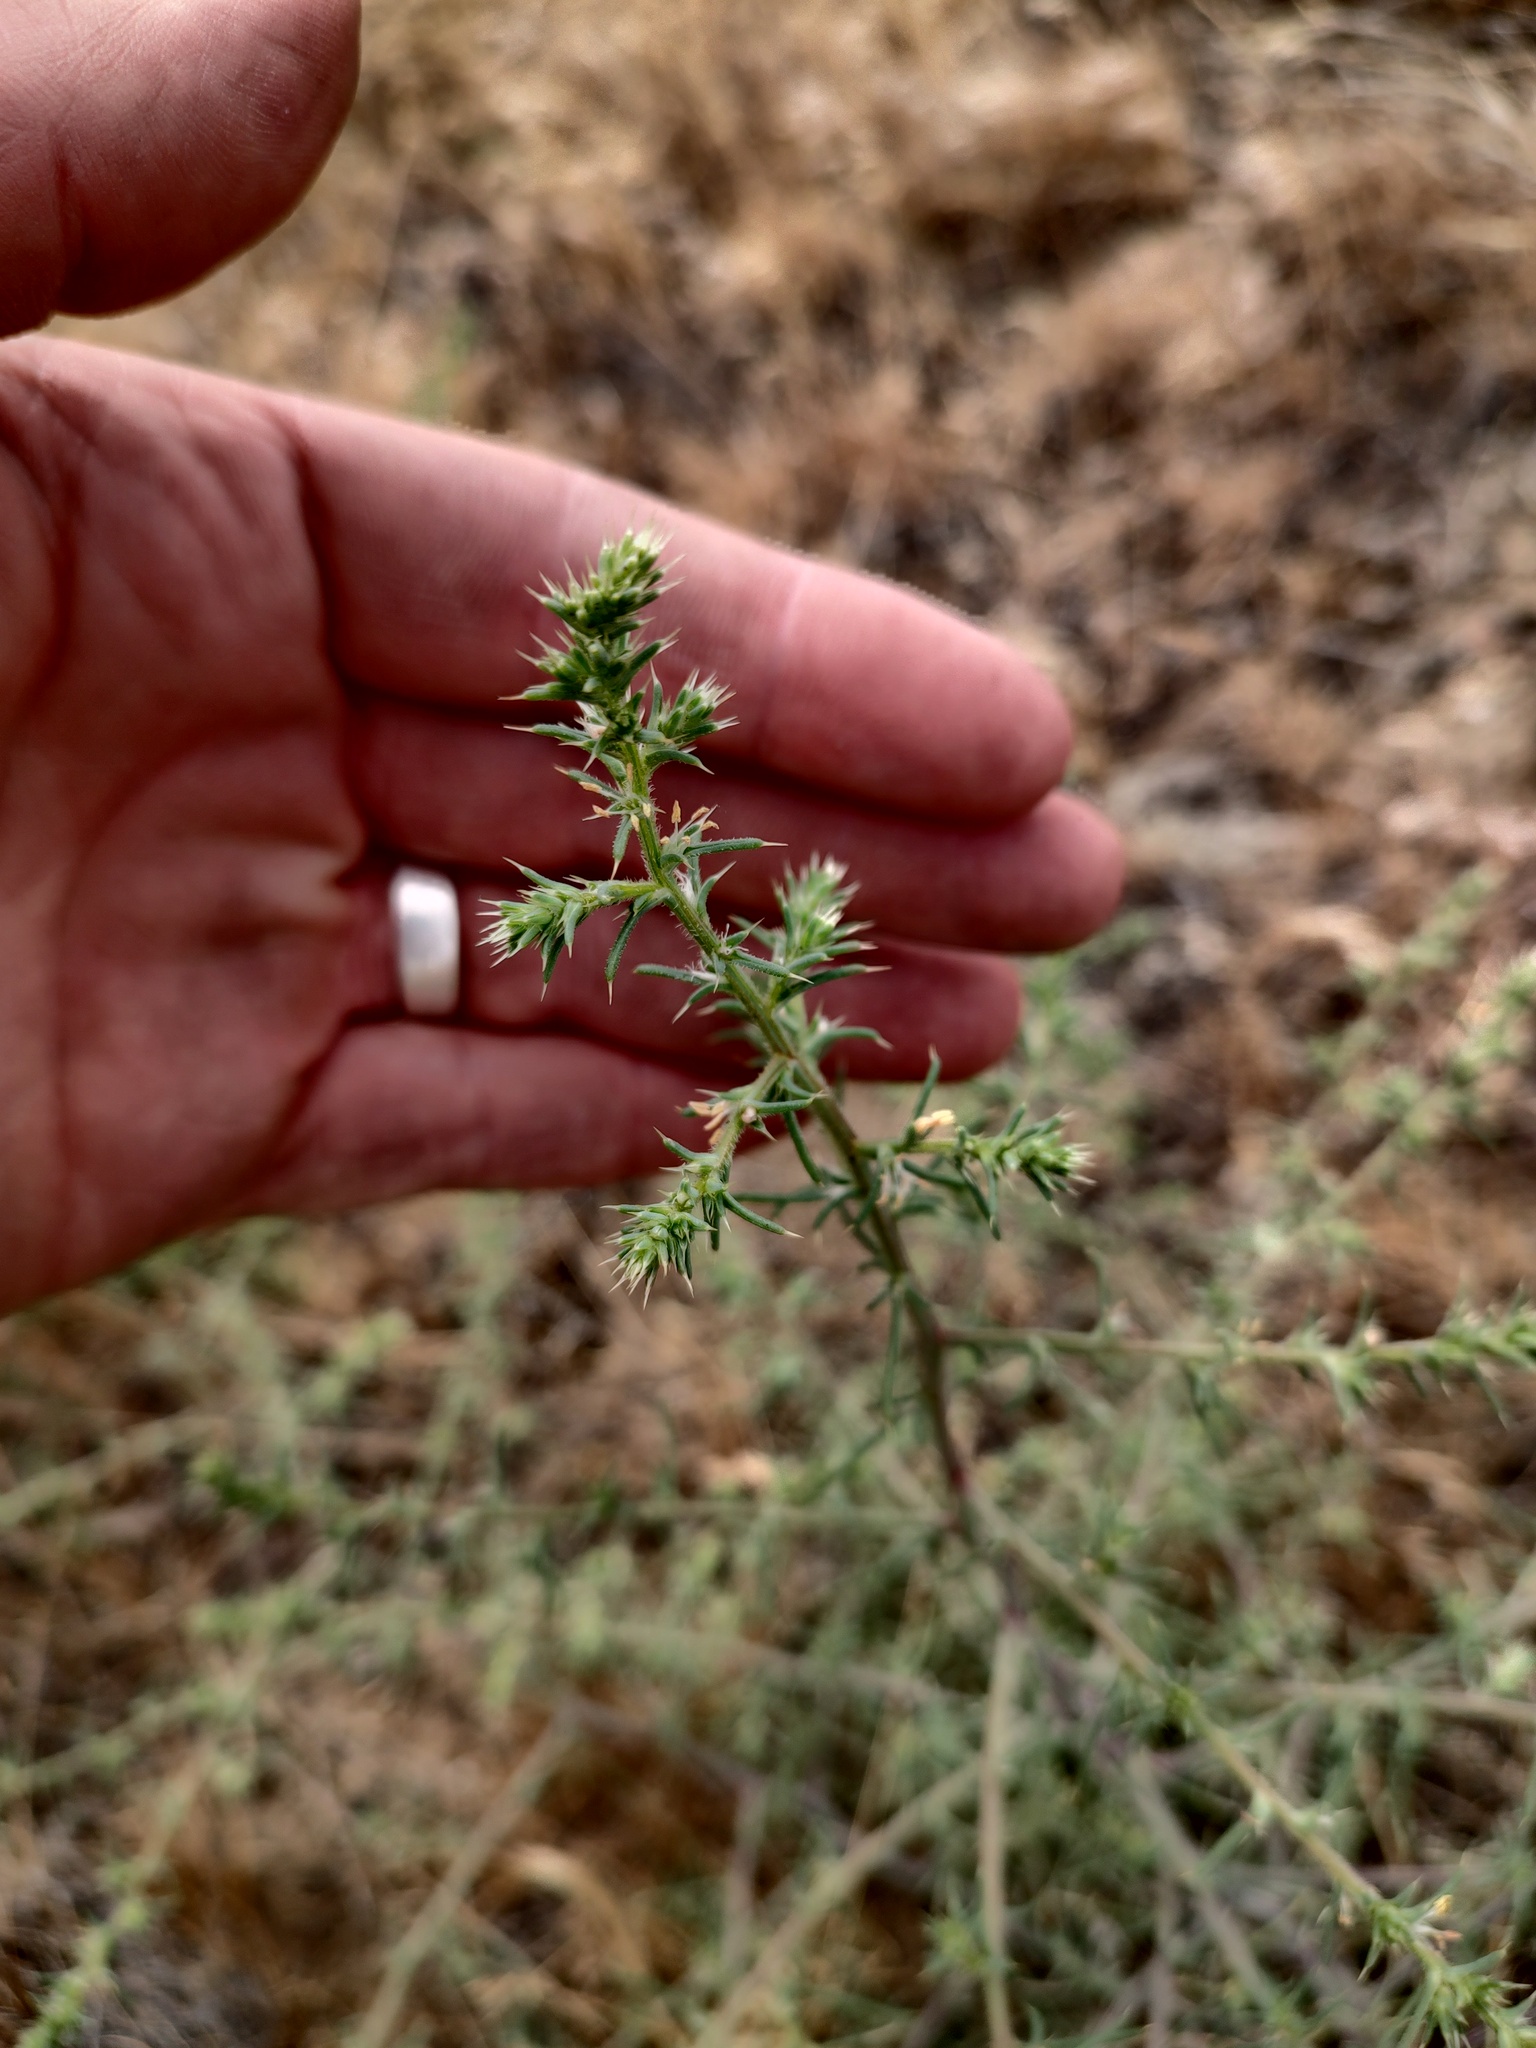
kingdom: Plantae
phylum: Tracheophyta
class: Magnoliopsida
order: Caryophyllales
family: Amaranthaceae
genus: Salsola
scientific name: Salsola tragus
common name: Prickly russian thistle
